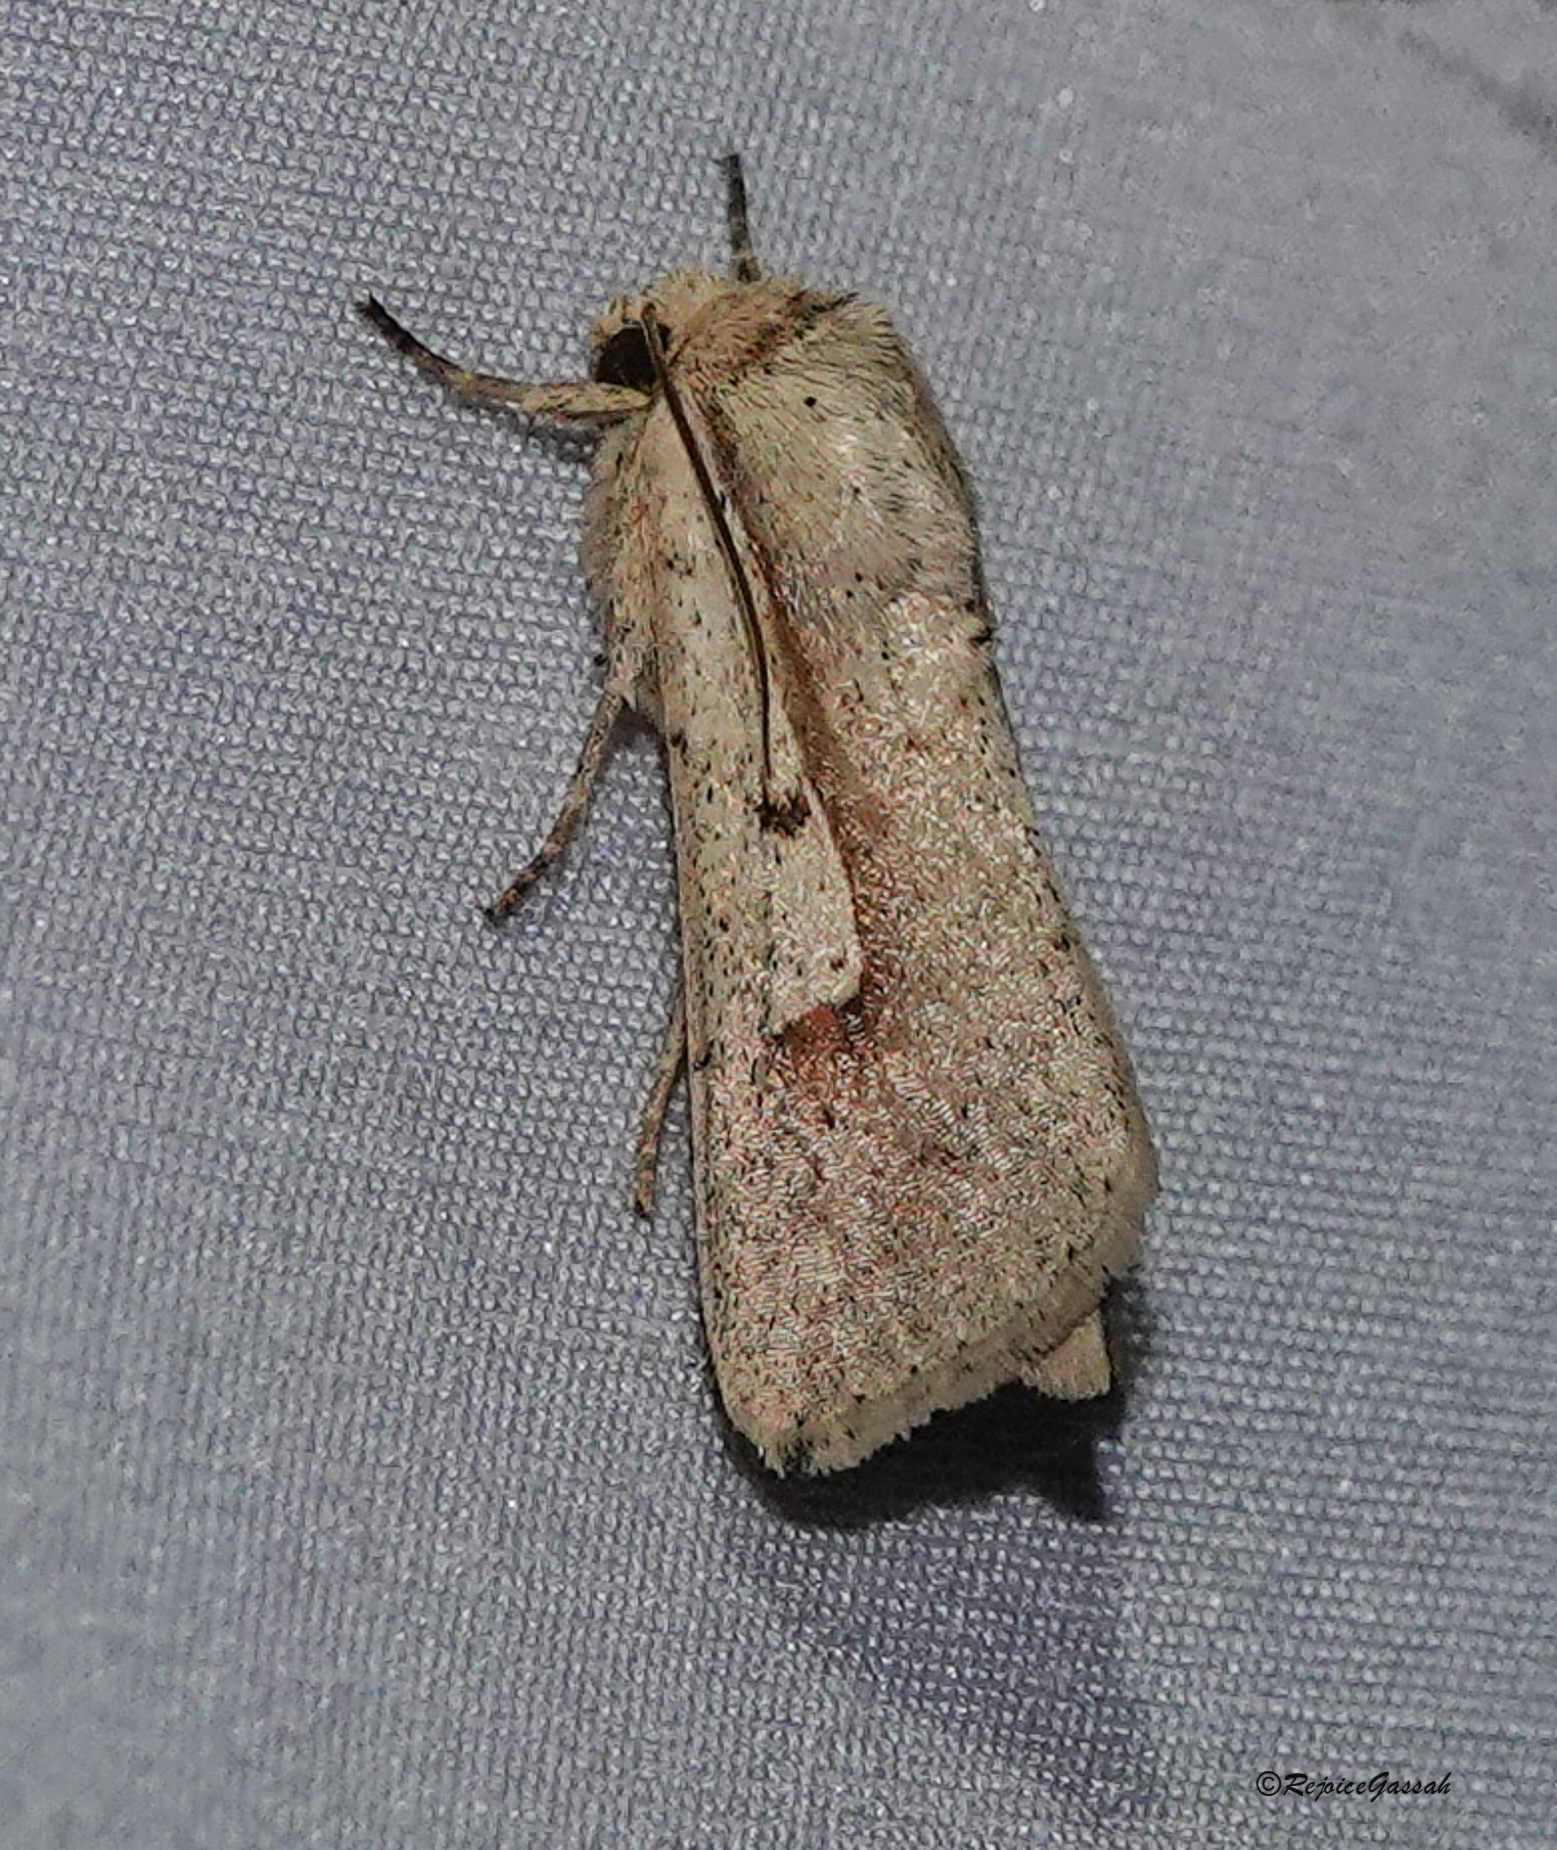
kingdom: Animalia
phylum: Arthropoda
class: Insecta
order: Lepidoptera
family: Noctuidae
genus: Leucania
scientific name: Leucania yu
